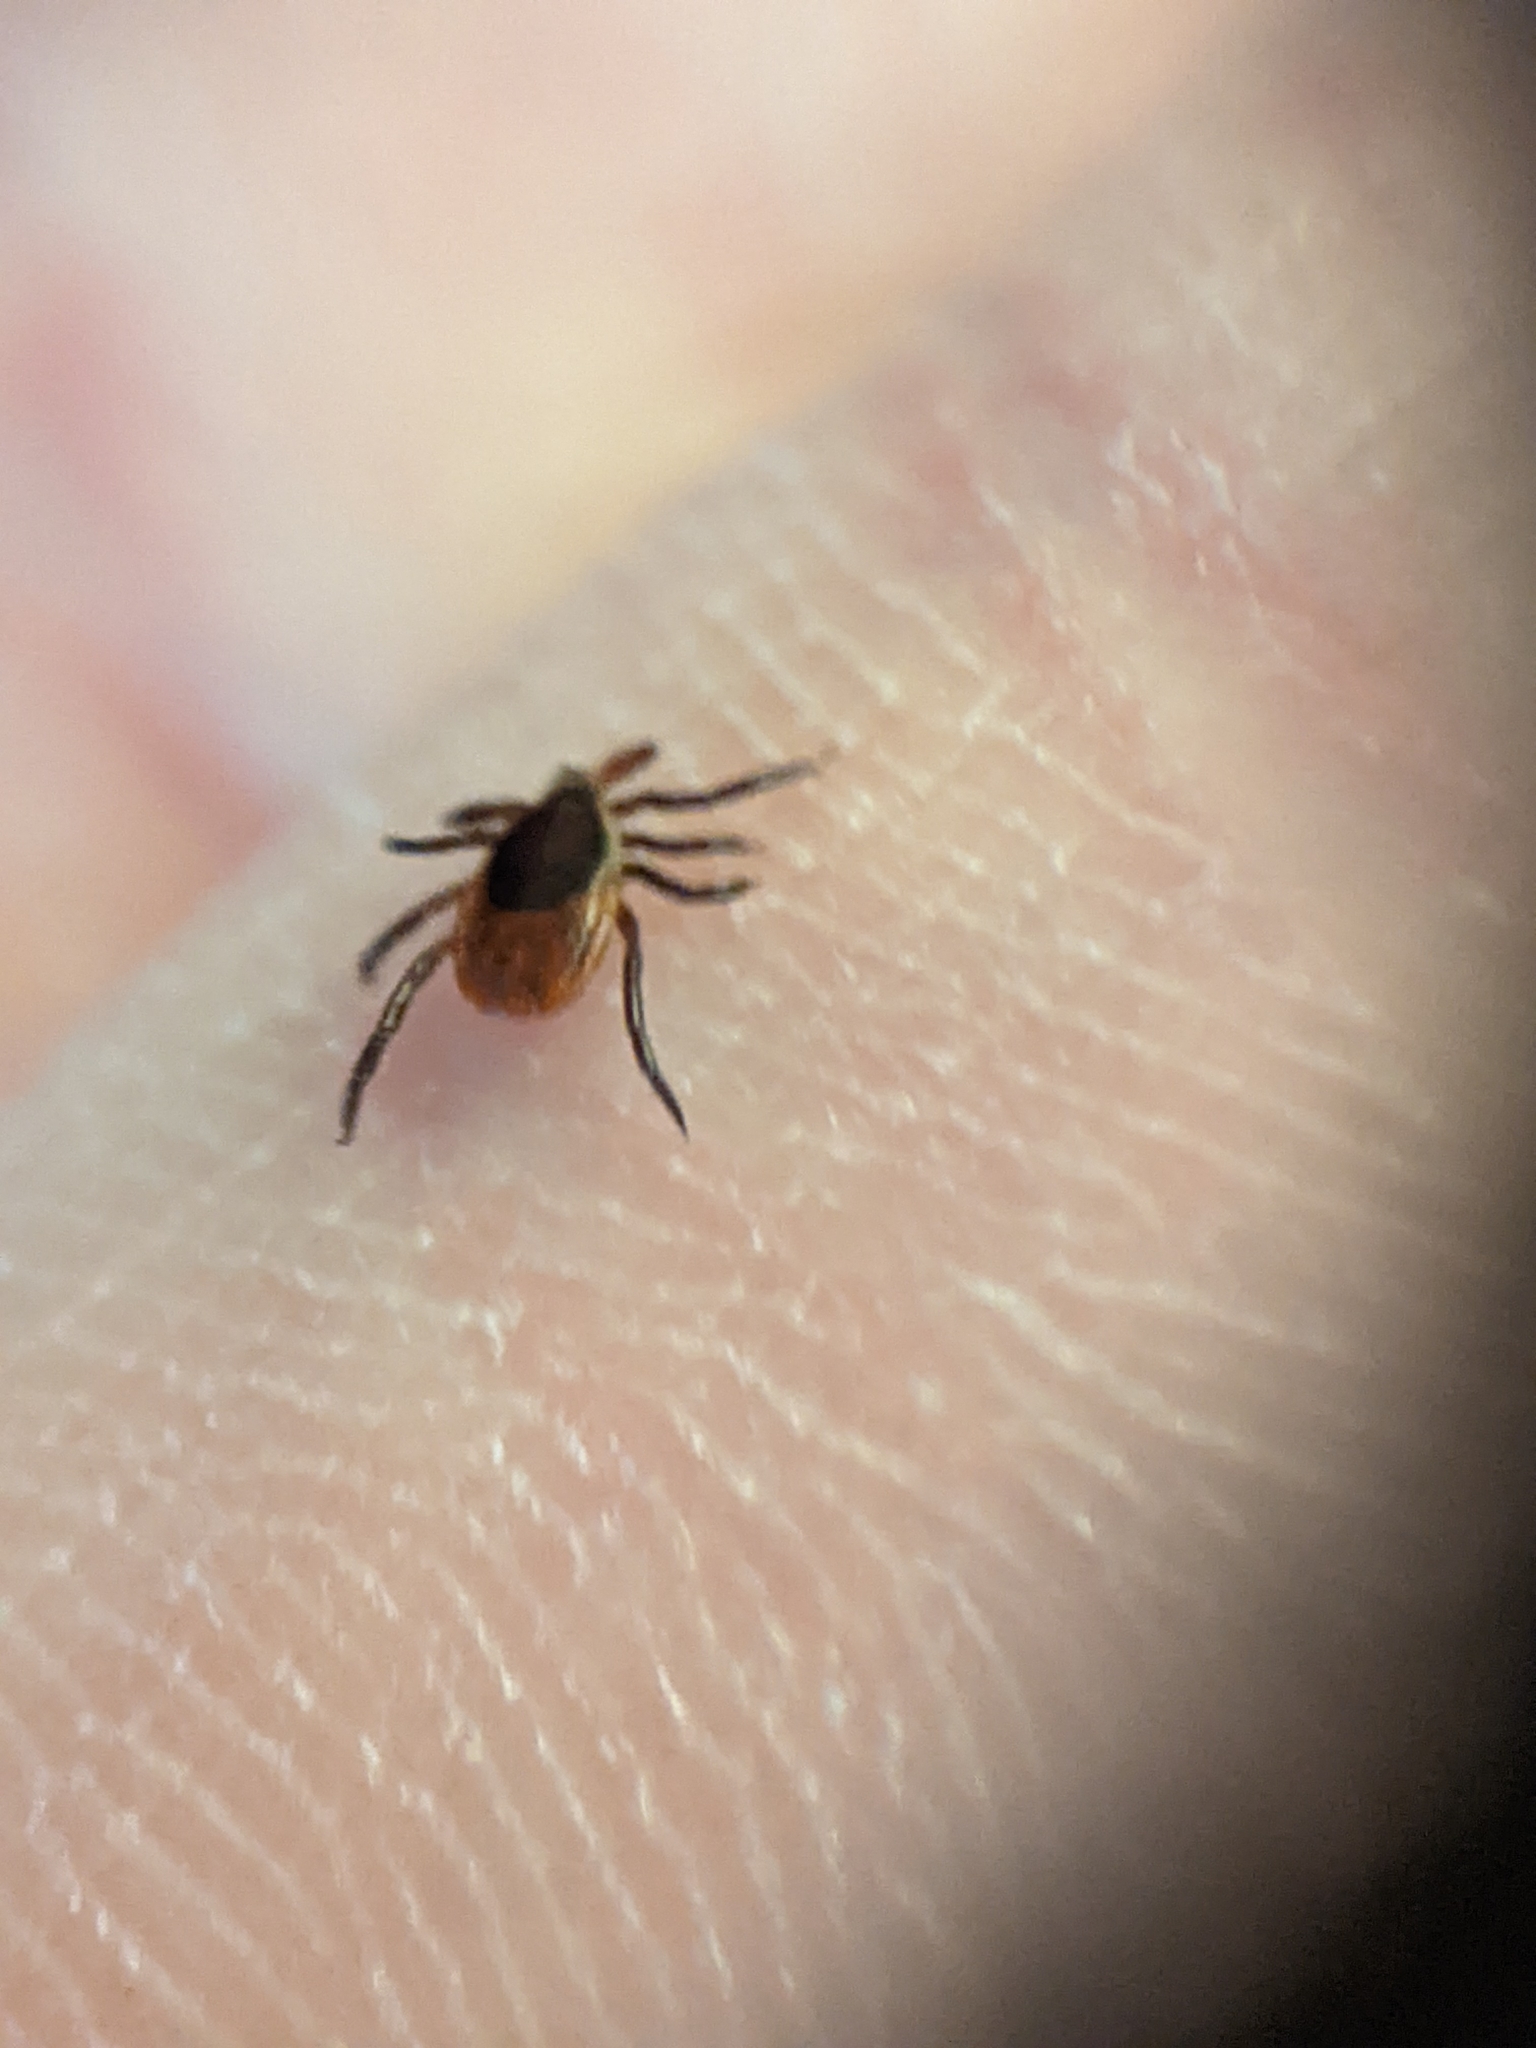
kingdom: Animalia
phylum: Arthropoda
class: Arachnida
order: Ixodida
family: Ixodidae
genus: Ixodes
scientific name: Ixodes scapularis
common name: Black legged tick
